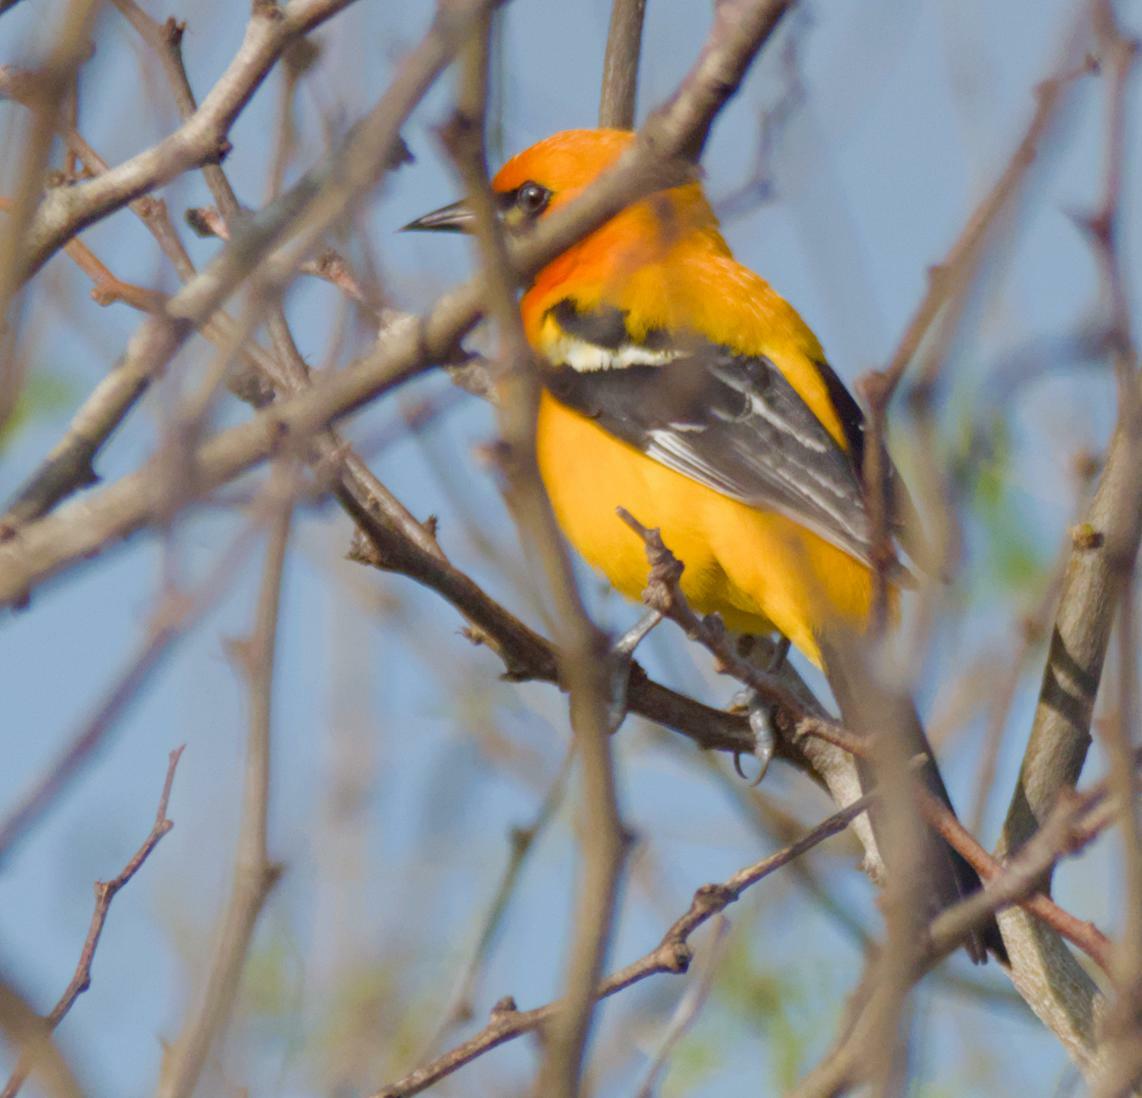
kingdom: Animalia
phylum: Chordata
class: Aves
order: Passeriformes
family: Icteridae
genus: Icterus
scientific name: Icterus auratus
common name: Orange oriole
